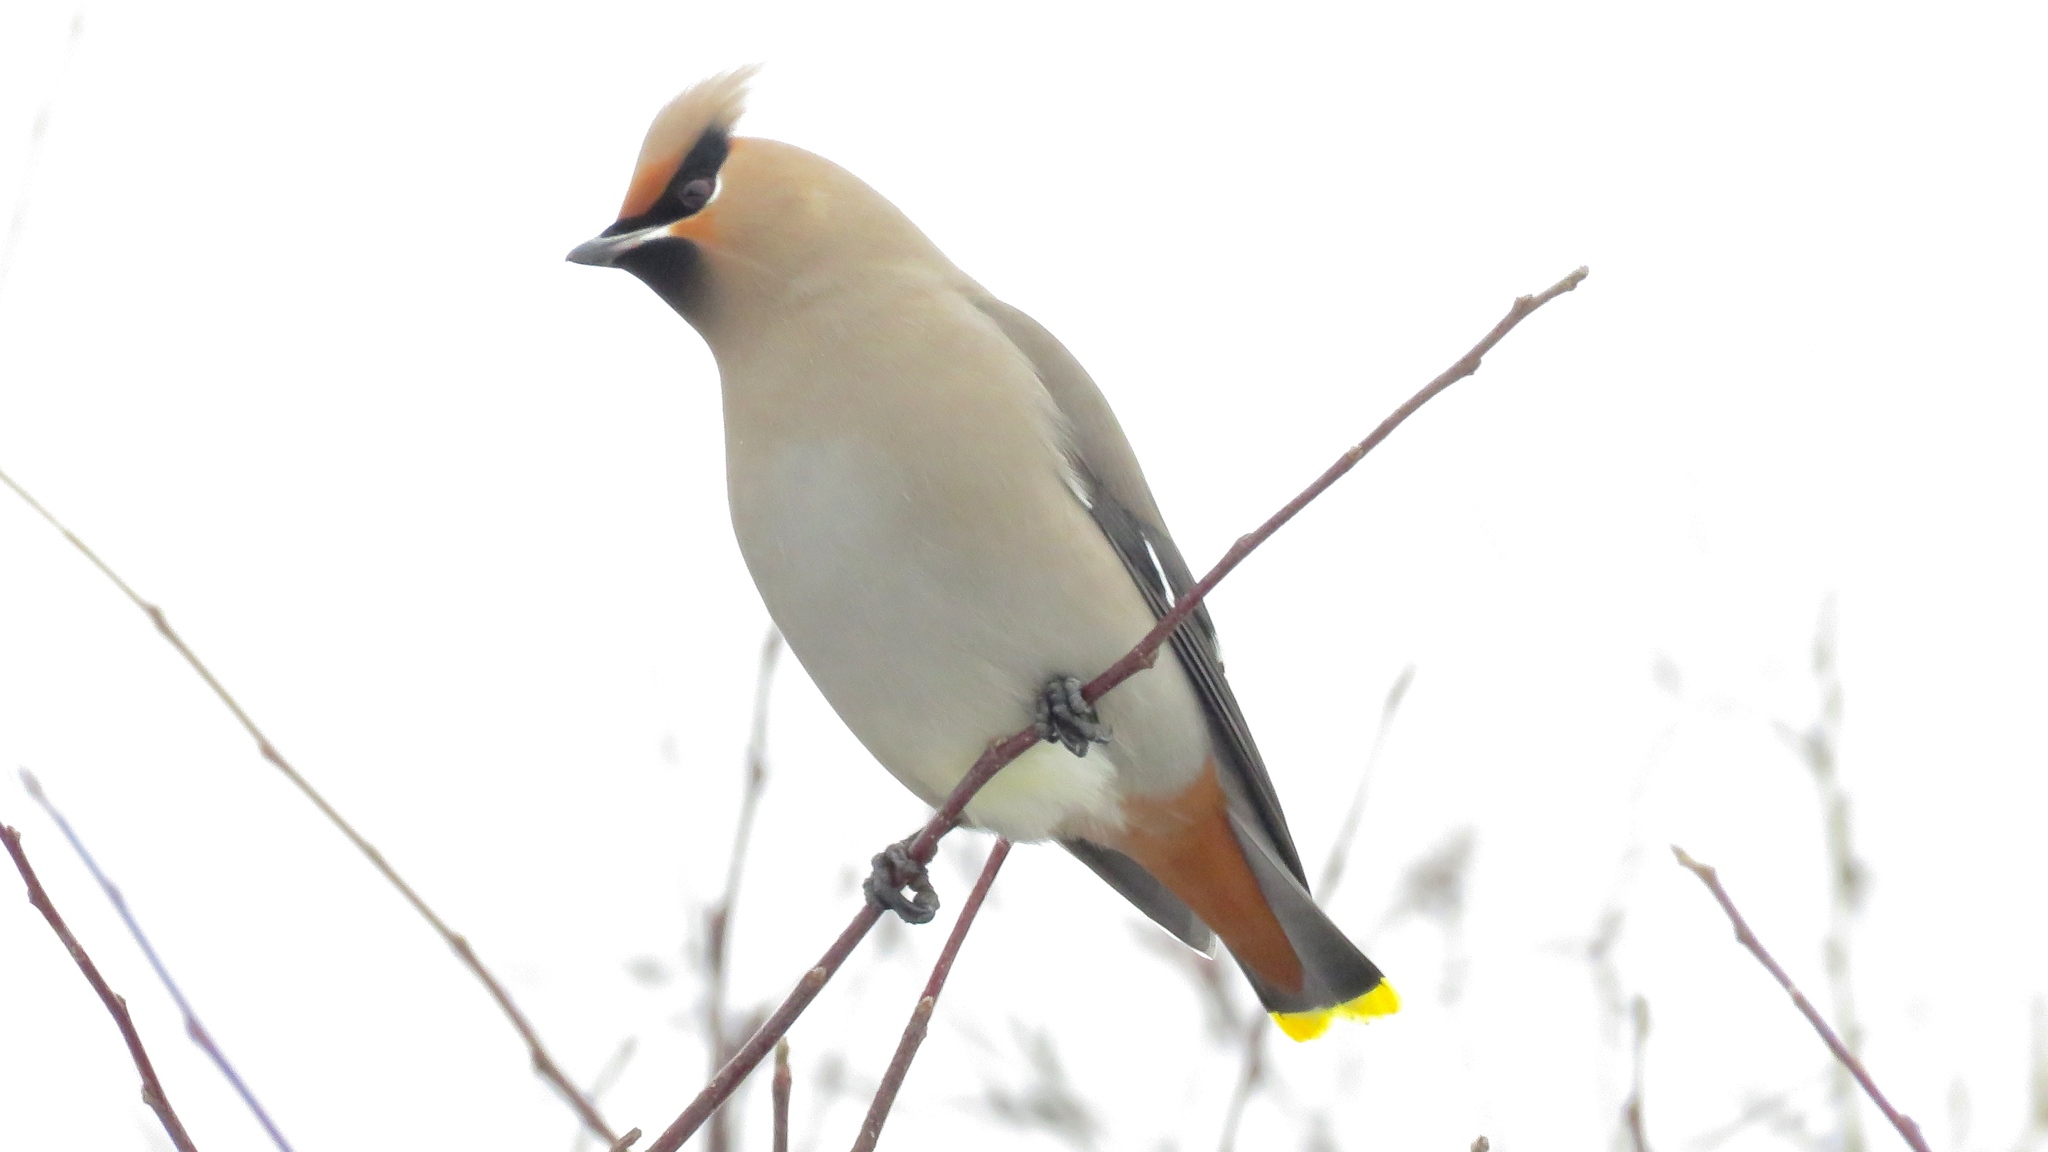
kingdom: Animalia
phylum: Chordata
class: Aves
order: Passeriformes
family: Bombycillidae
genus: Bombycilla
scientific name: Bombycilla garrulus
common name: Bohemian waxwing
